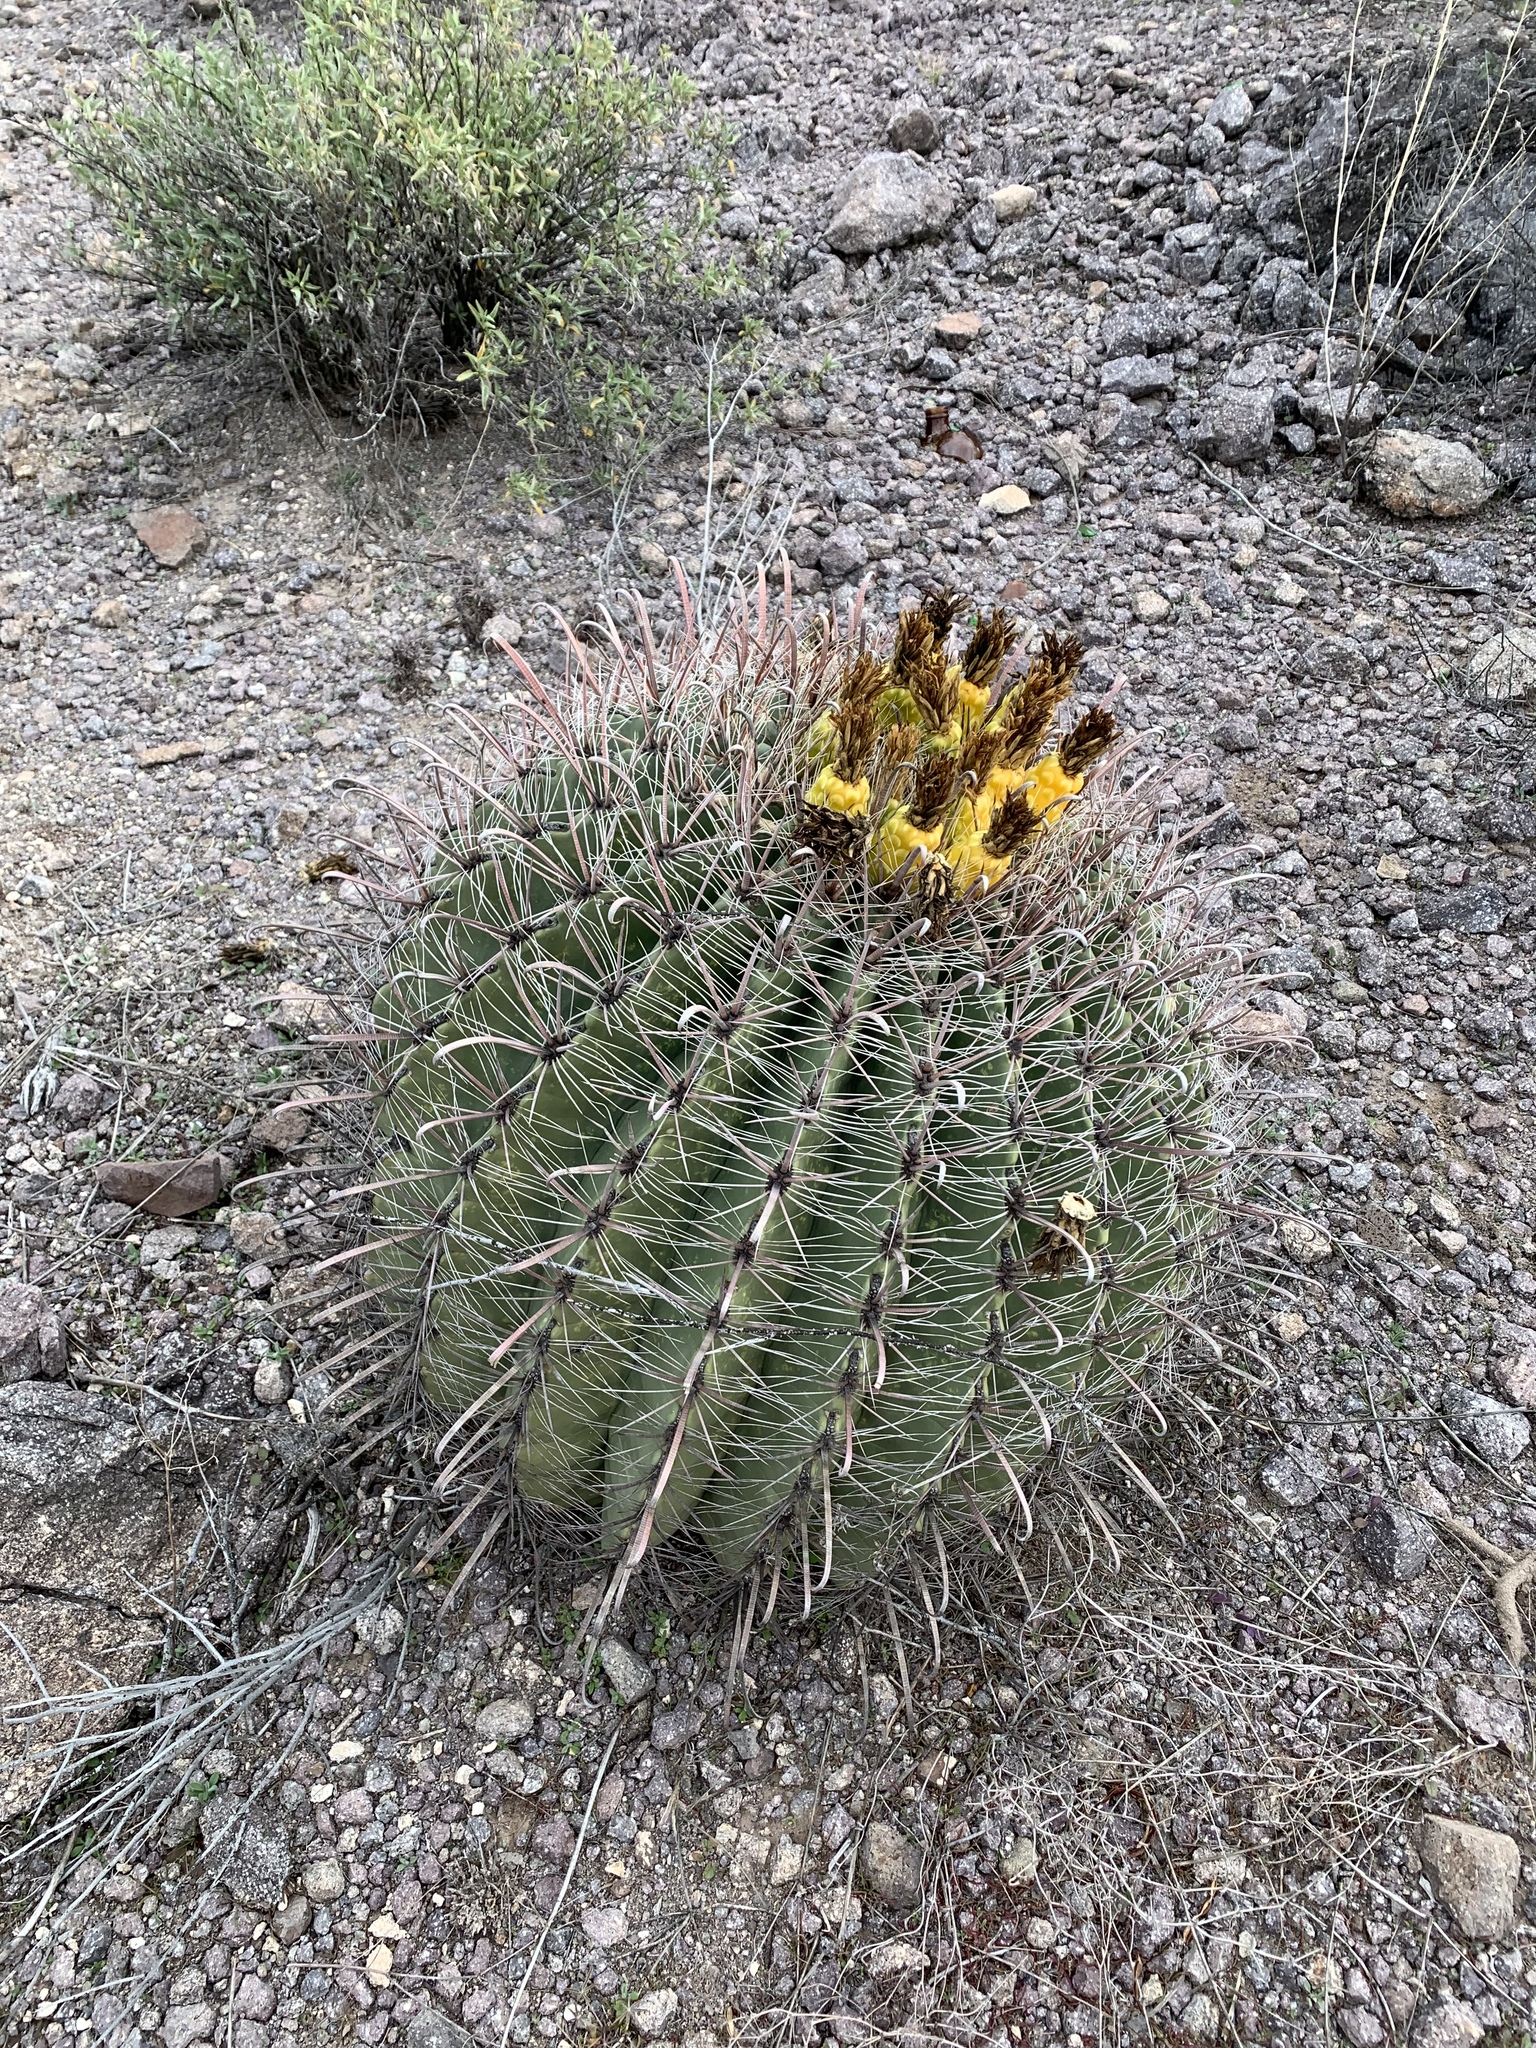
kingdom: Plantae
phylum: Tracheophyta
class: Magnoliopsida
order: Caryophyllales
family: Cactaceae
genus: Ferocactus
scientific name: Ferocactus wislizeni
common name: Candy barrel cactus
